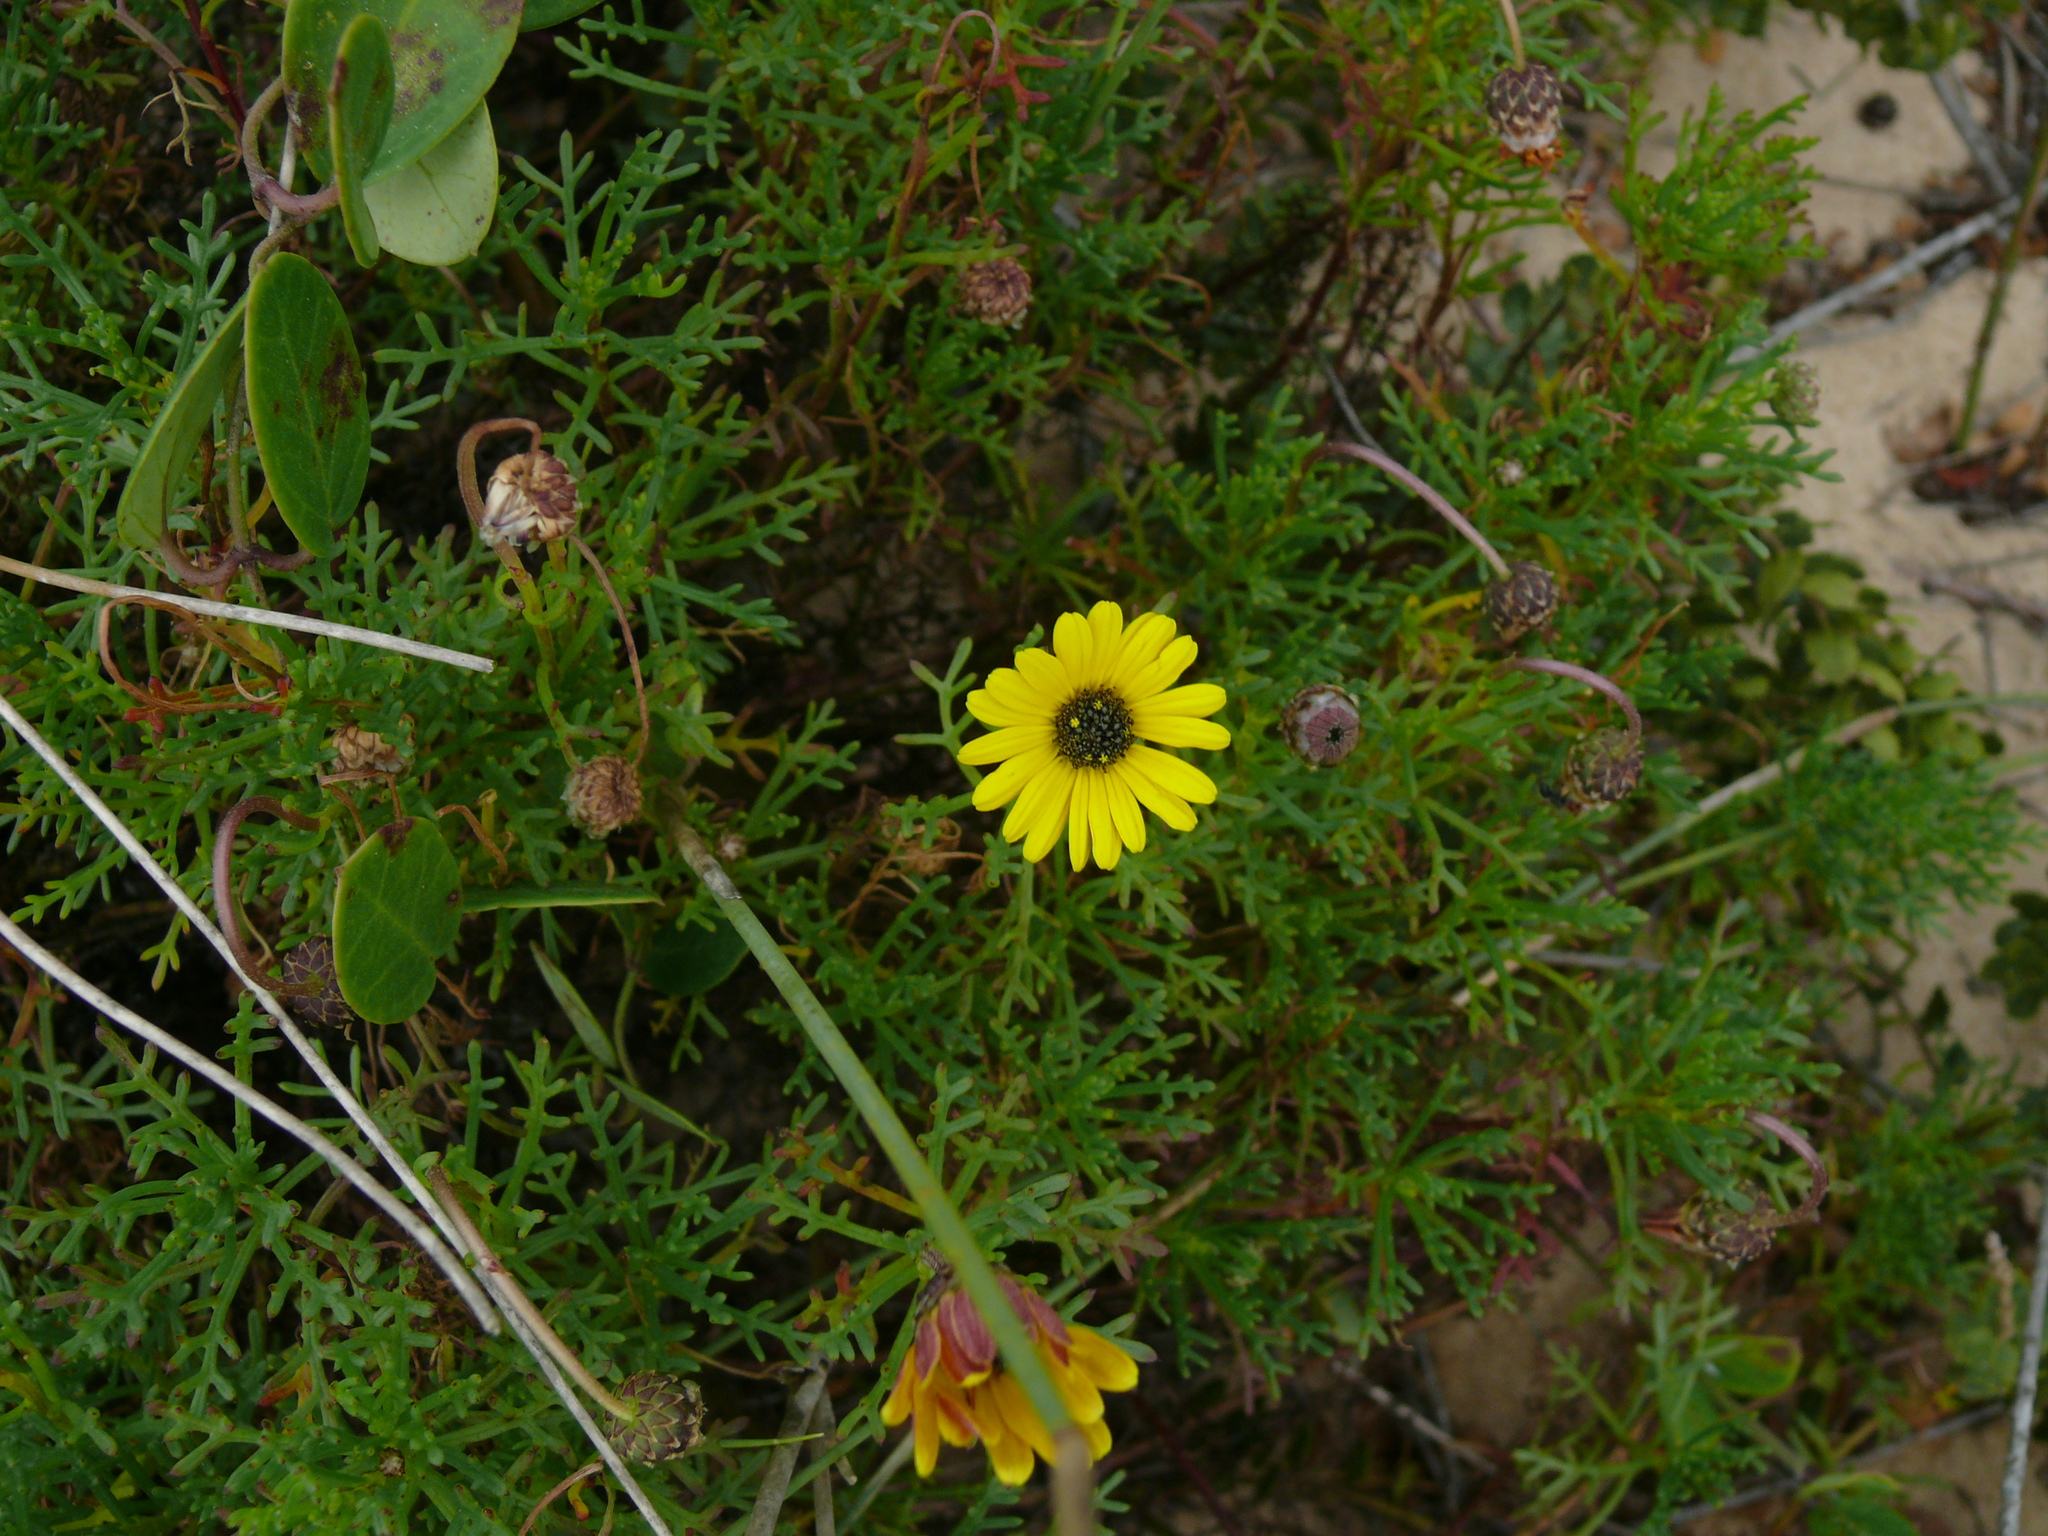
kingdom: Plantae
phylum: Tracheophyta
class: Magnoliopsida
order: Asterales
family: Asteraceae
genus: Ursinia
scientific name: Ursinia anthemoides
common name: Ursinia
